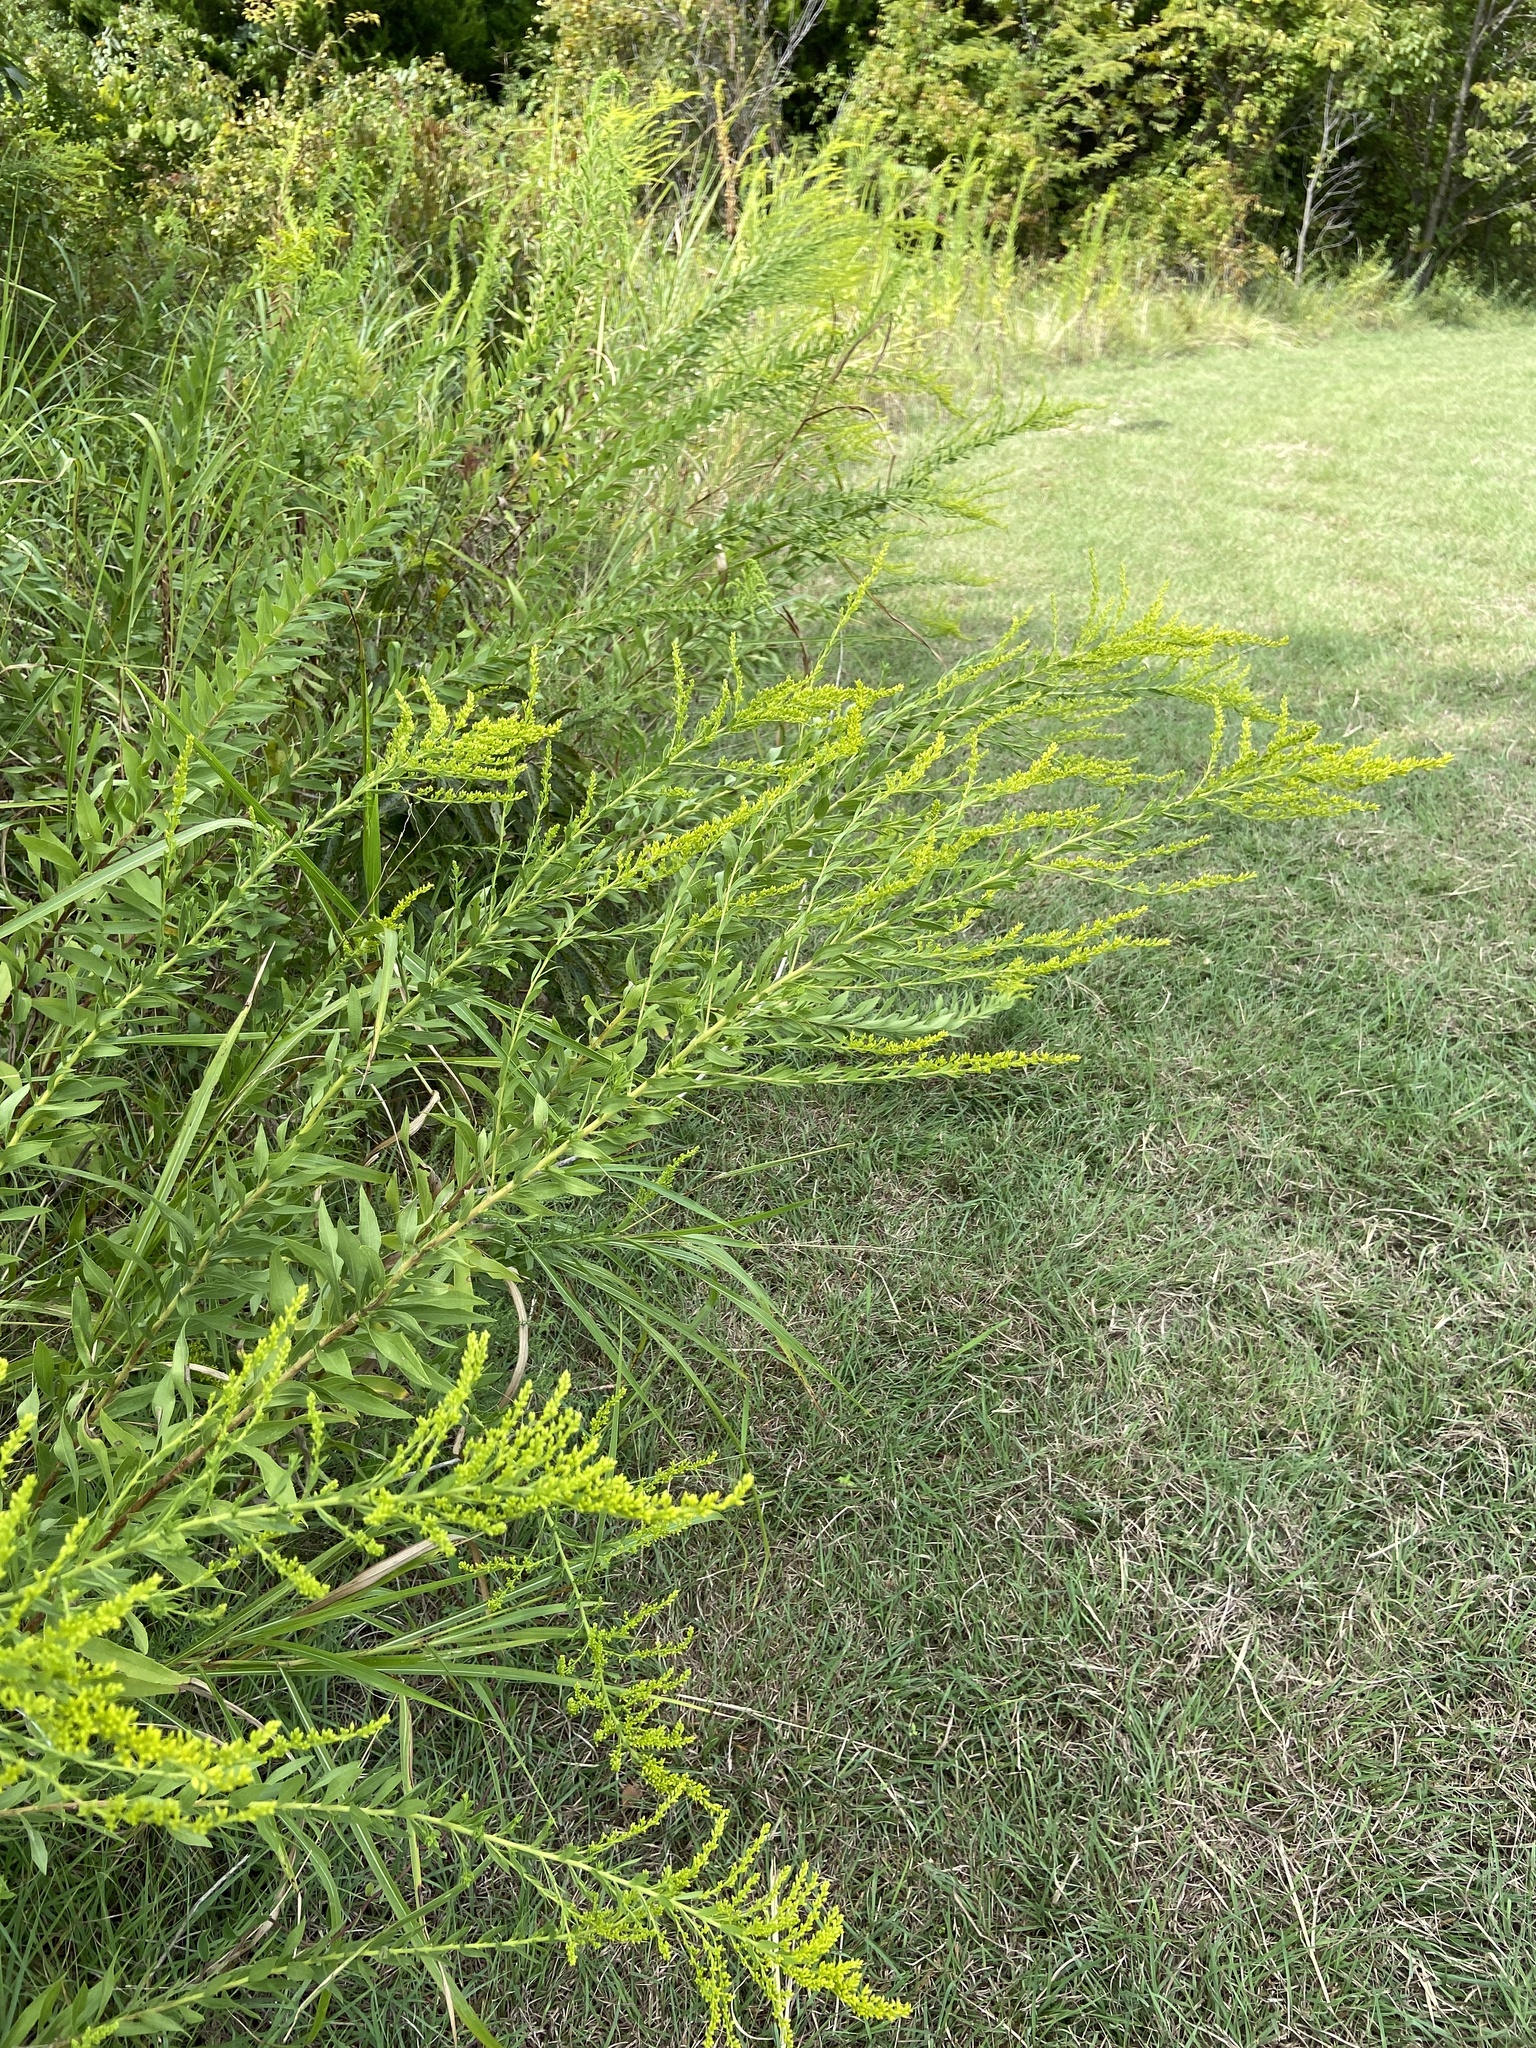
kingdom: Plantae
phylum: Tracheophyta
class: Magnoliopsida
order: Asterales
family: Asteraceae
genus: Solidago
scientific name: Solidago altissima
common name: Late goldenrod
